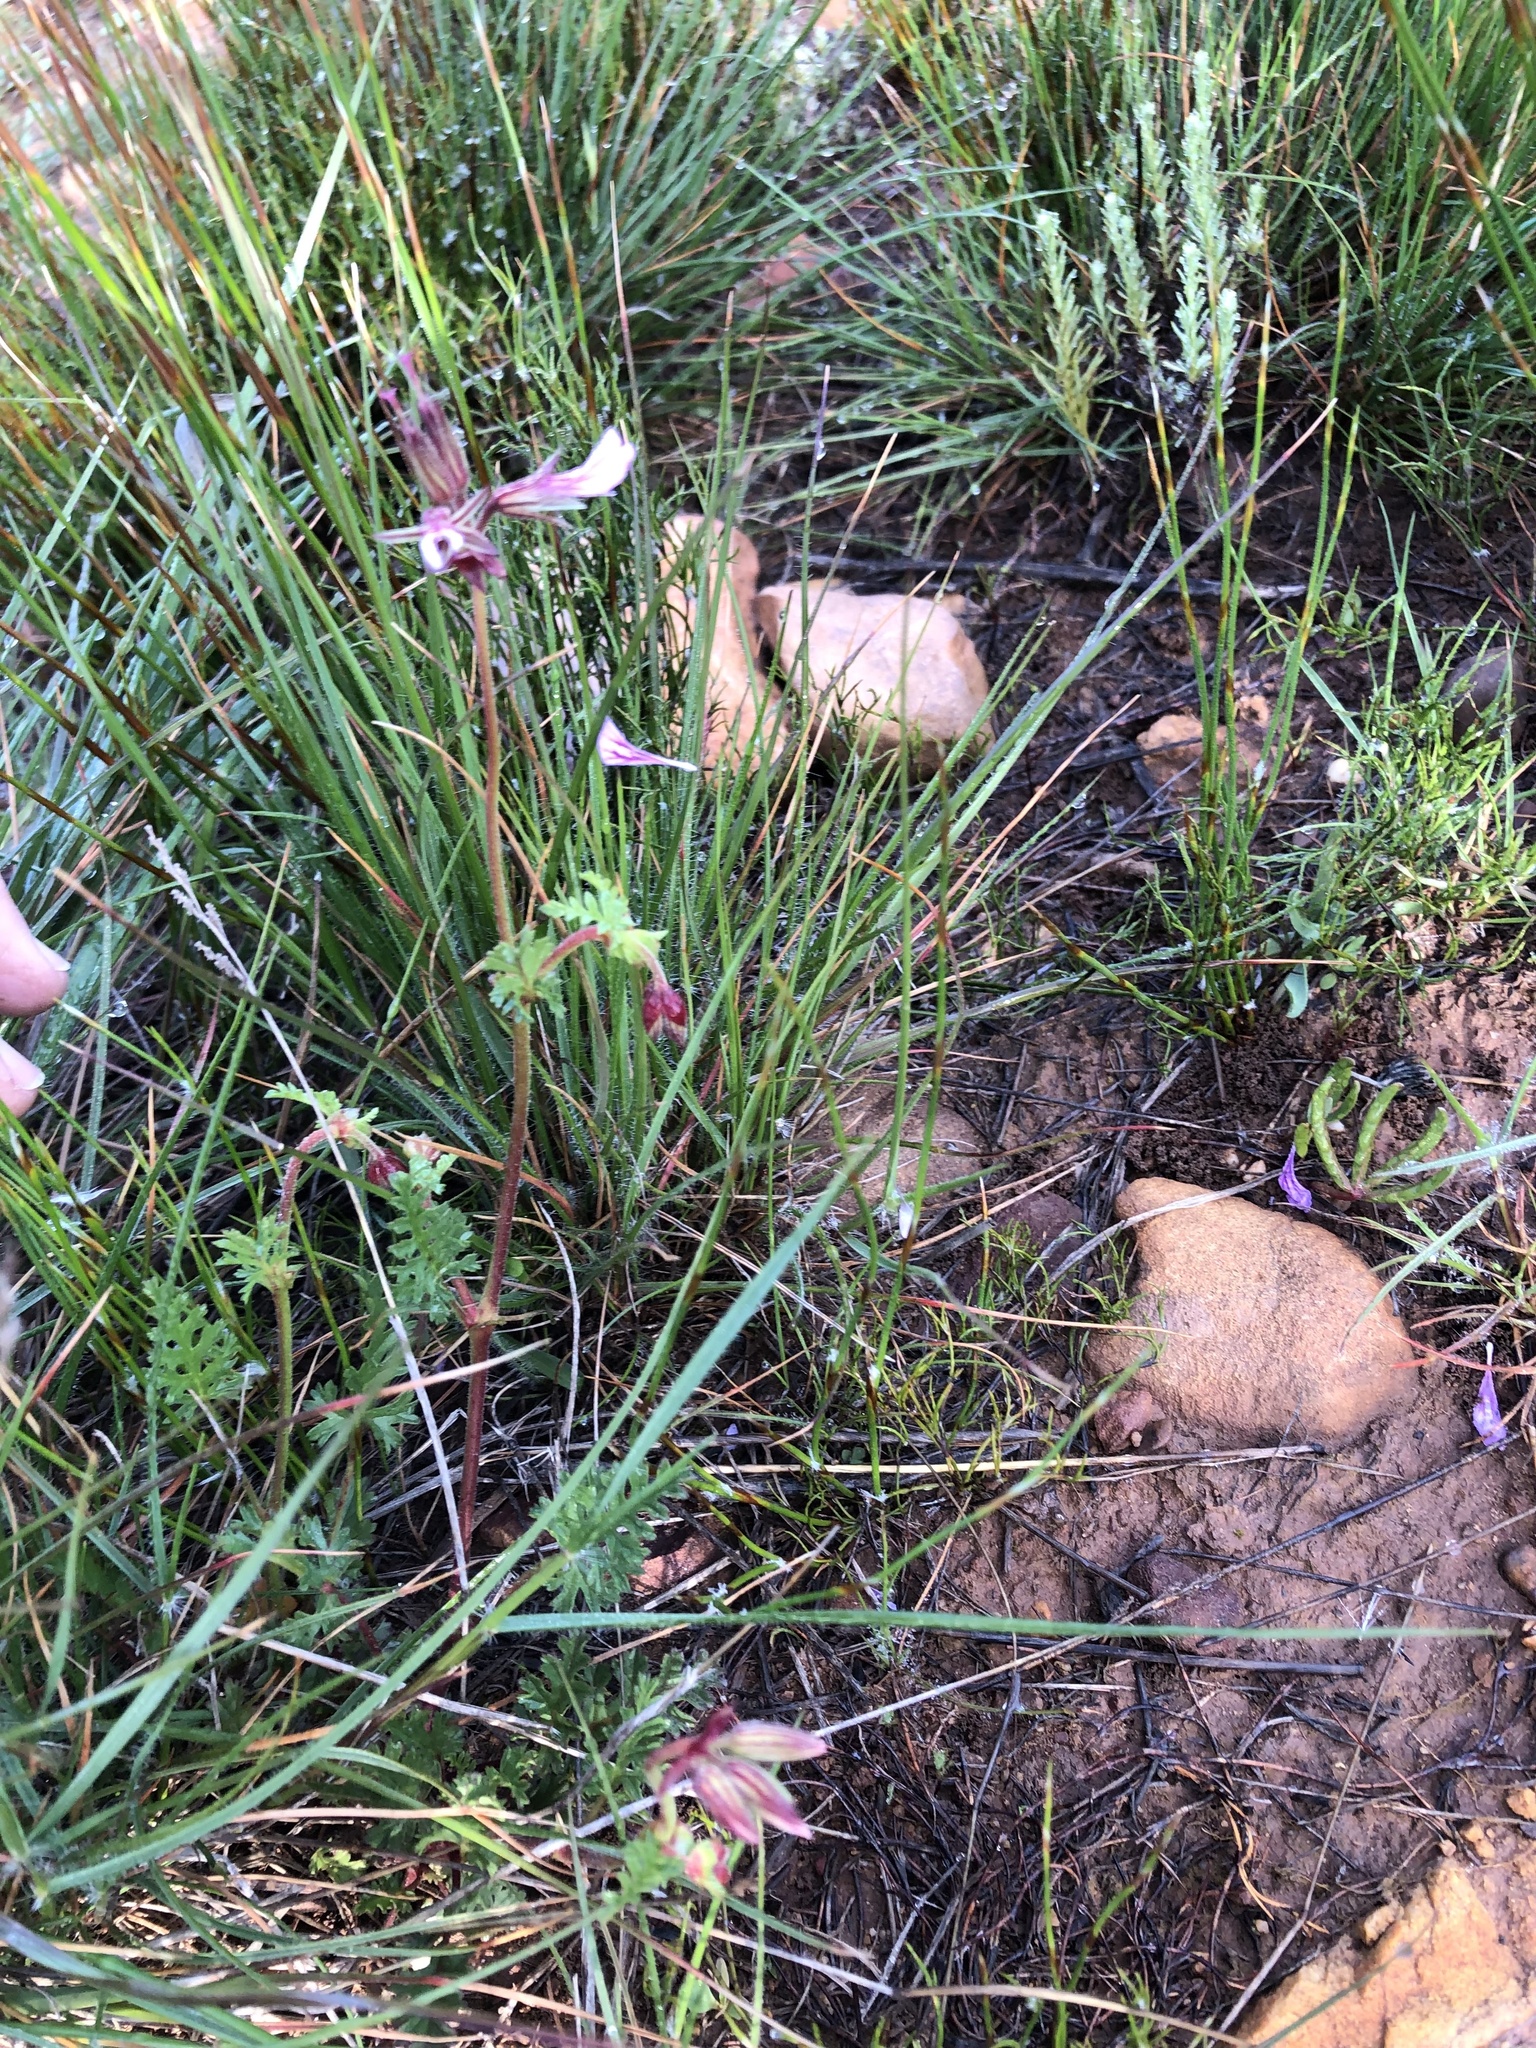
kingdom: Plantae
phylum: Tracheophyta
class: Magnoliopsida
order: Geraniales
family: Geraniaceae
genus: Pelargonium
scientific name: Pelargonium myrrhifolium
